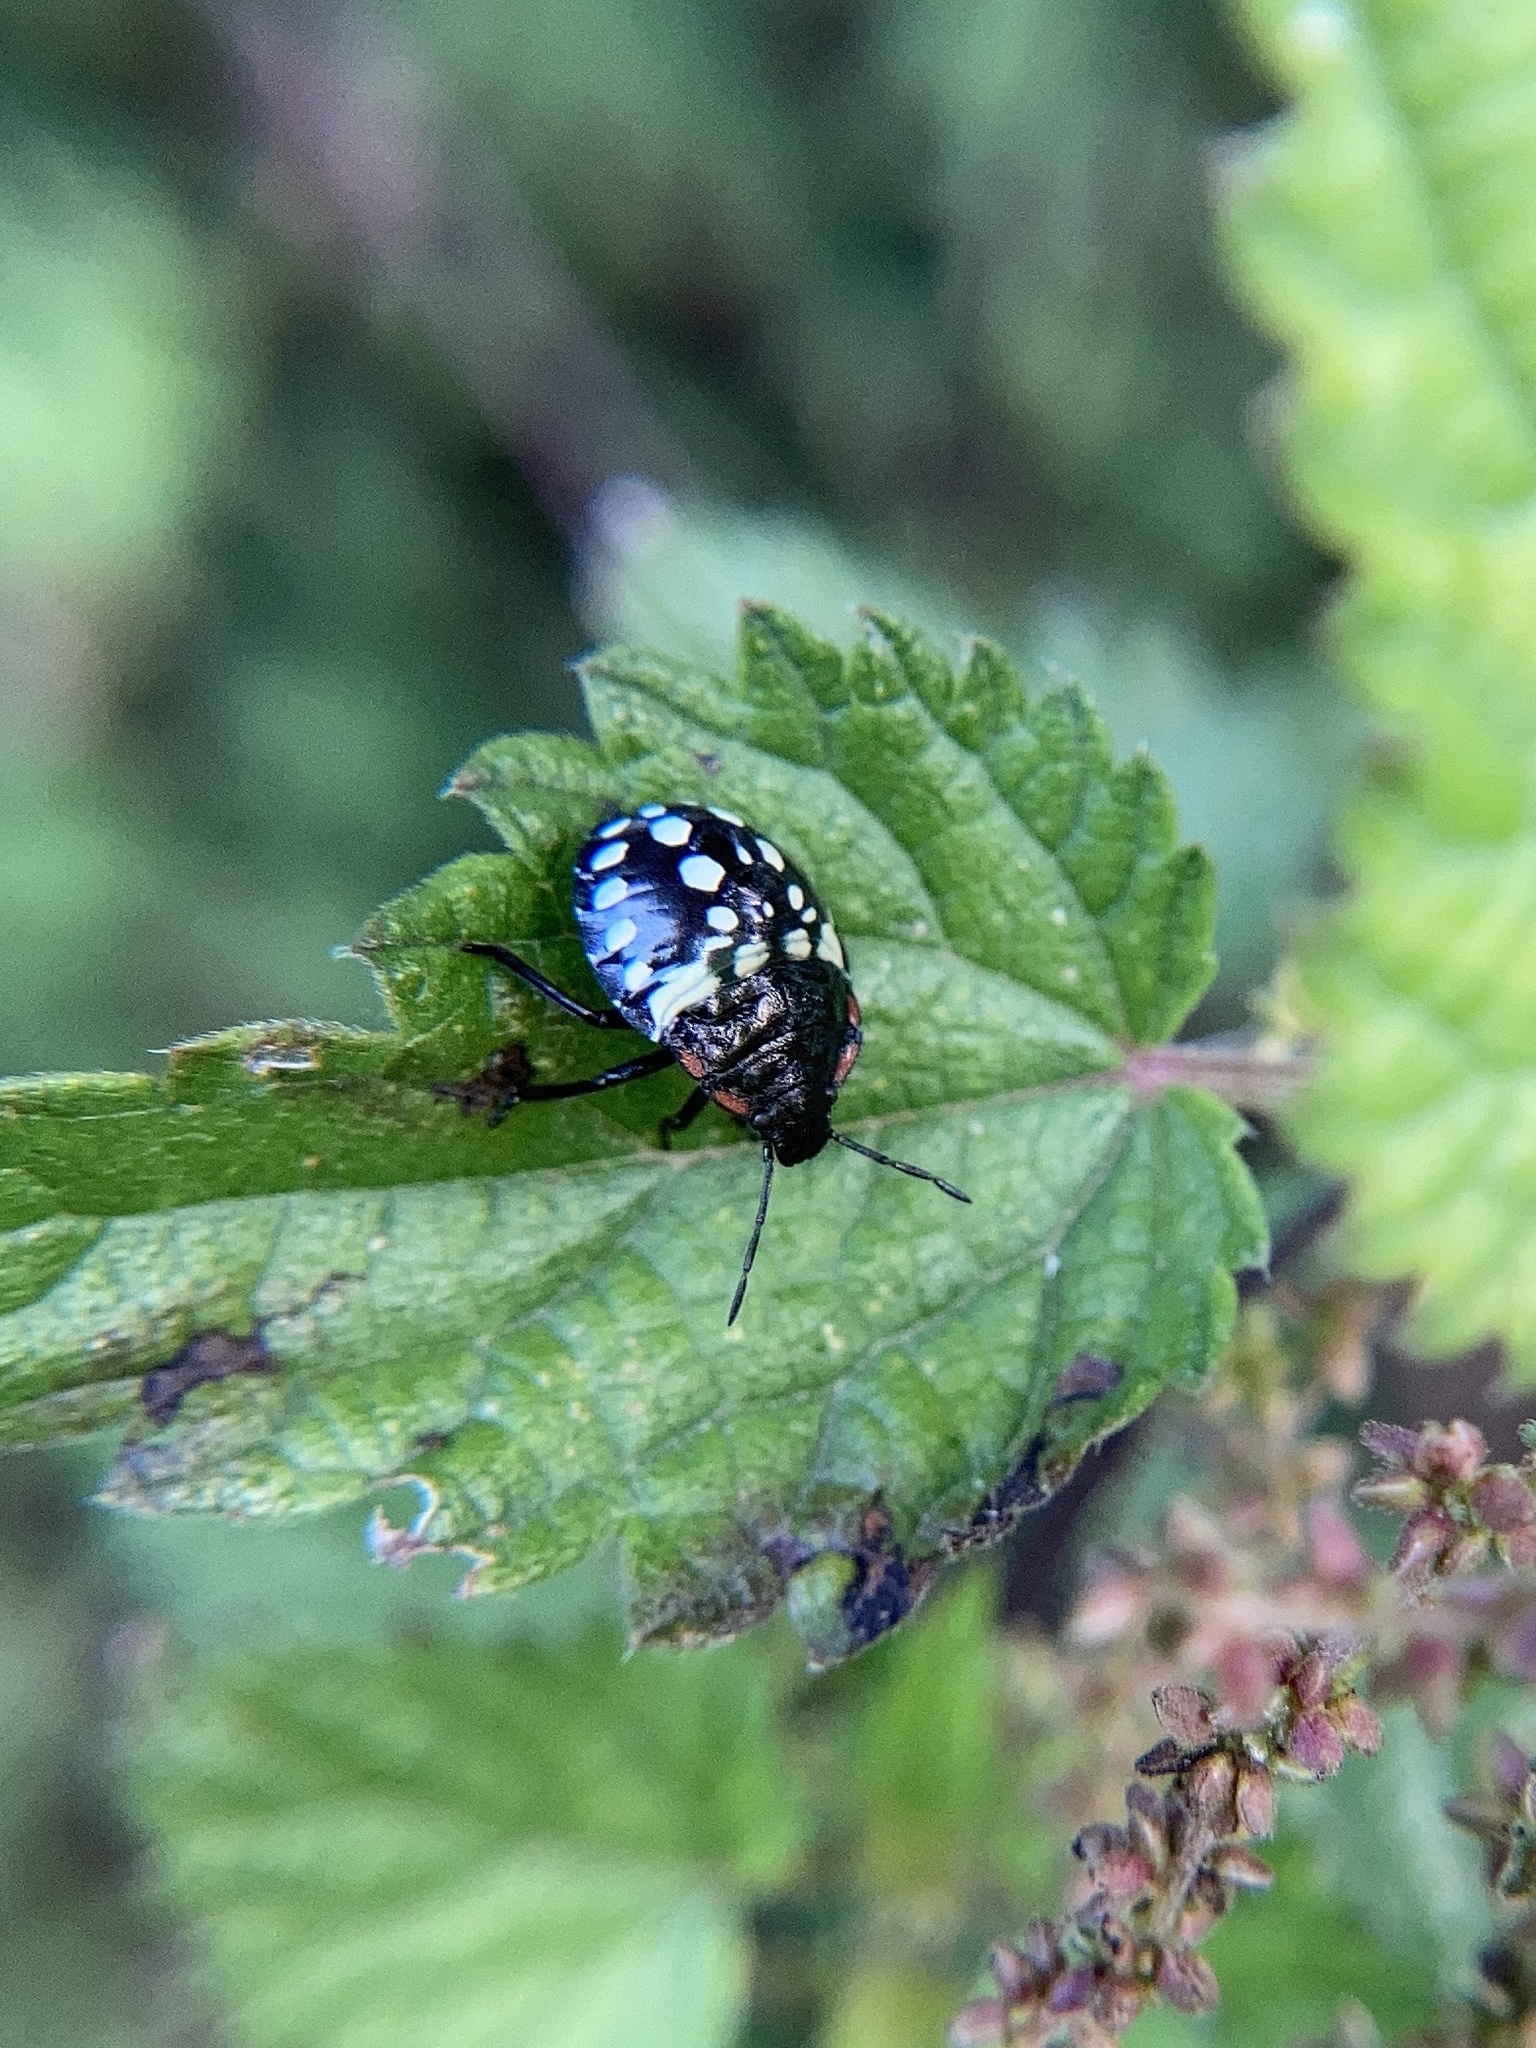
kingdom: Animalia
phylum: Arthropoda
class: Insecta
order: Hemiptera
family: Pentatomidae
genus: Nezara
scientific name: Nezara viridula
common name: Southern green stink bug
